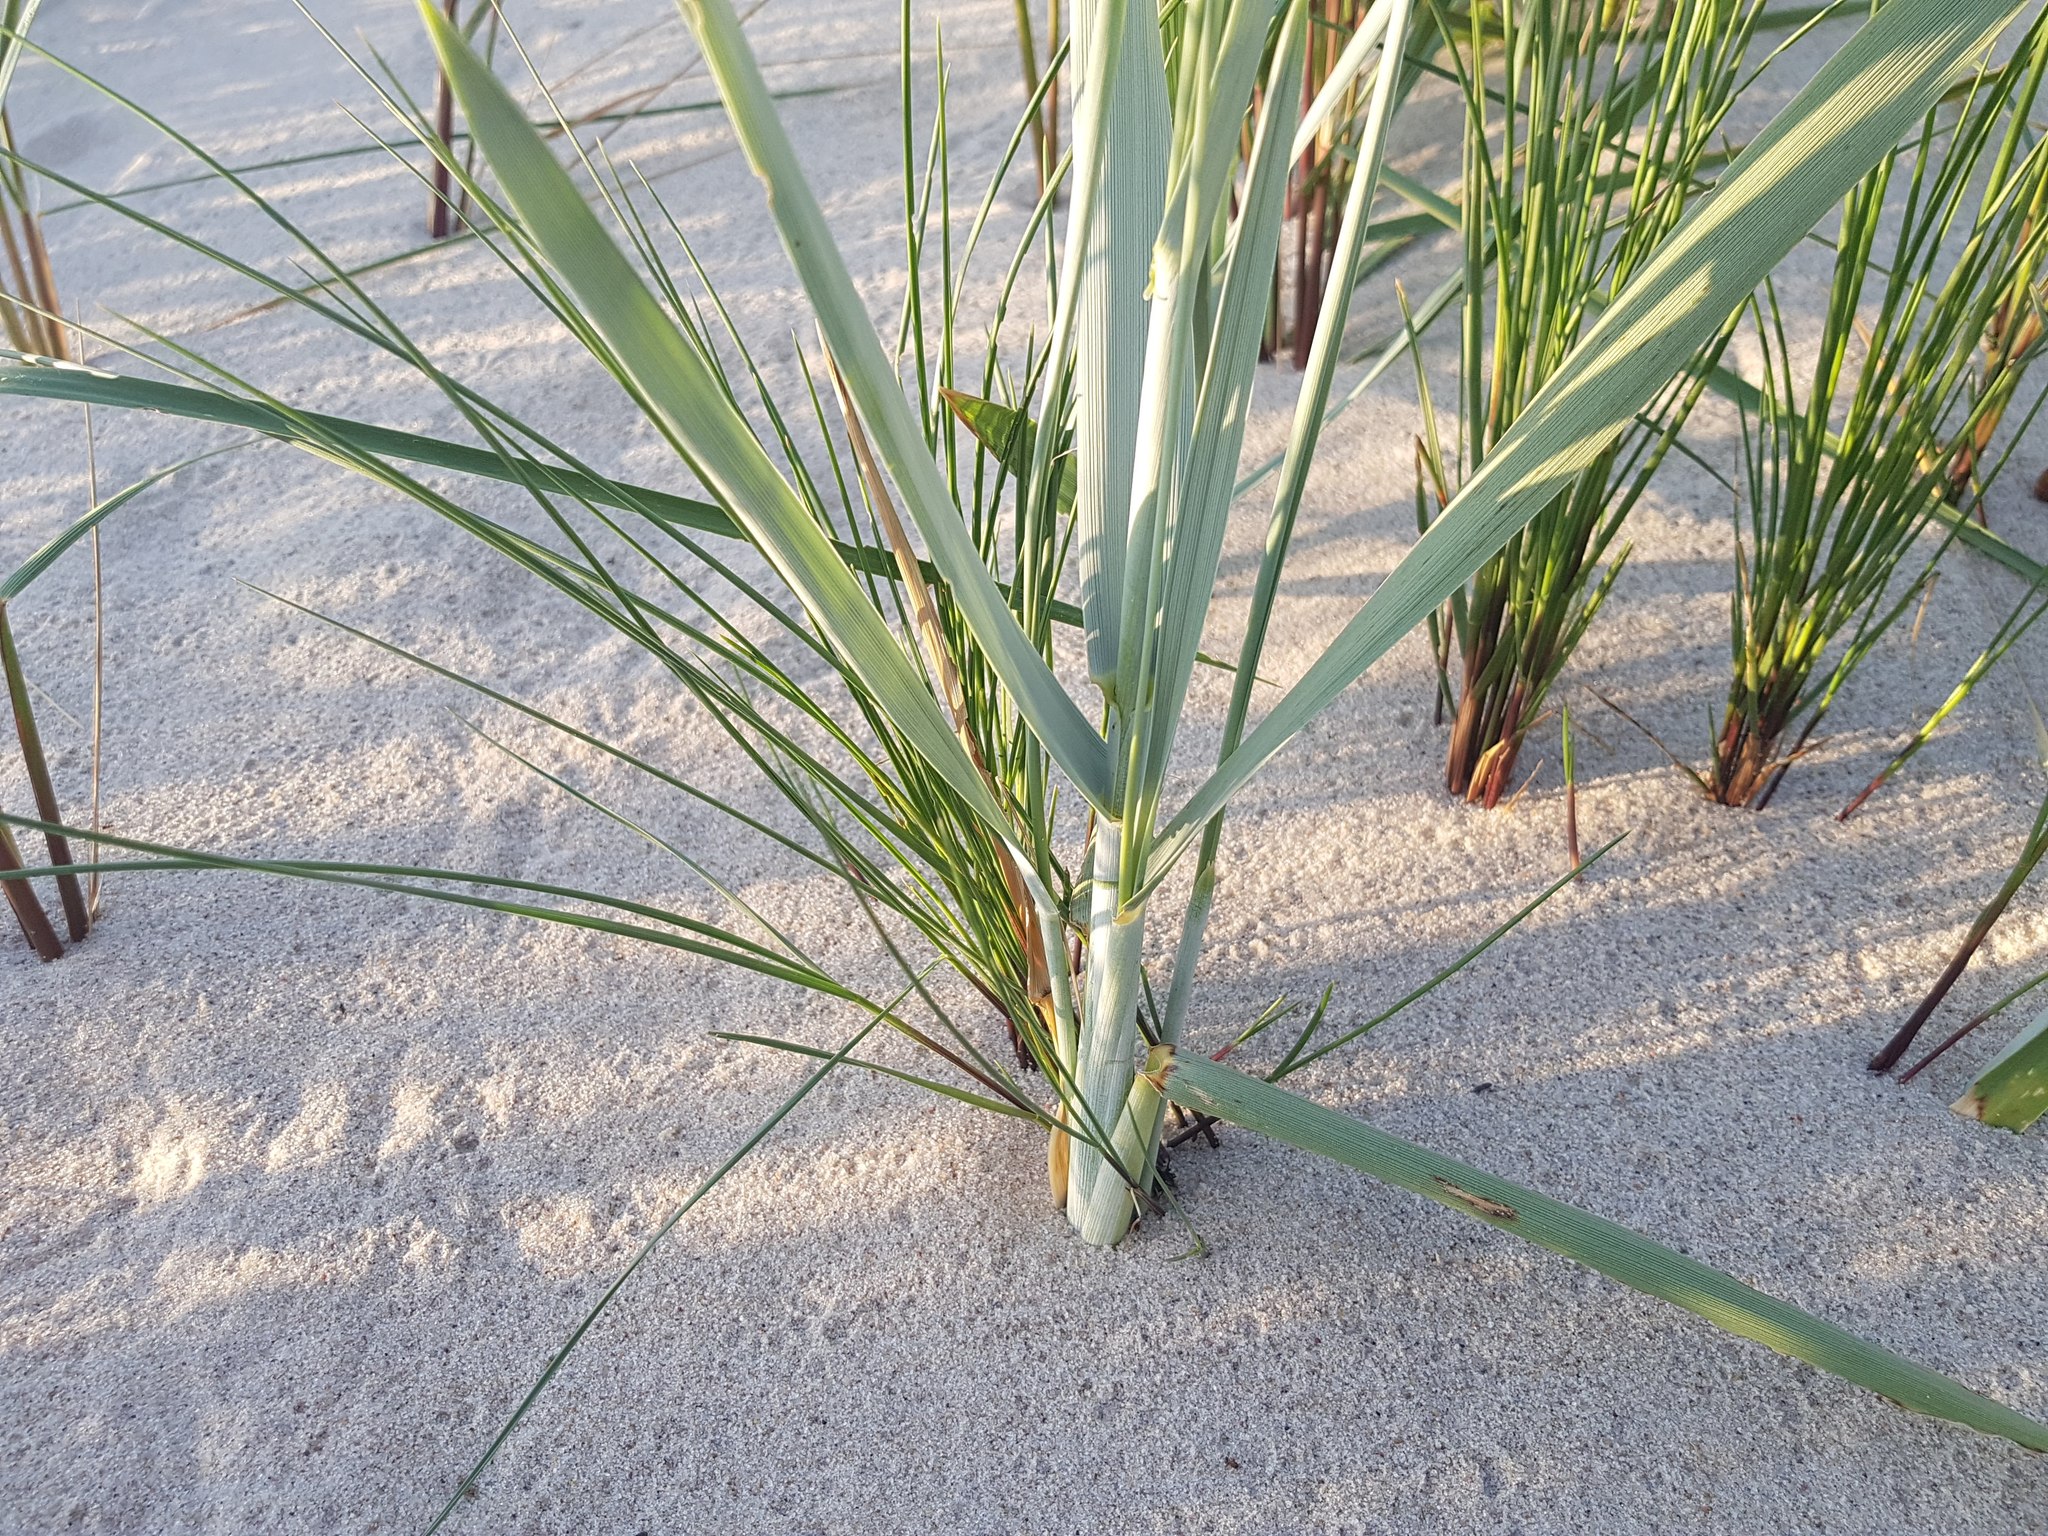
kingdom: Plantae
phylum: Tracheophyta
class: Liliopsida
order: Poales
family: Poaceae
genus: Leymus
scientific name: Leymus arenarius
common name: Lyme-grass
